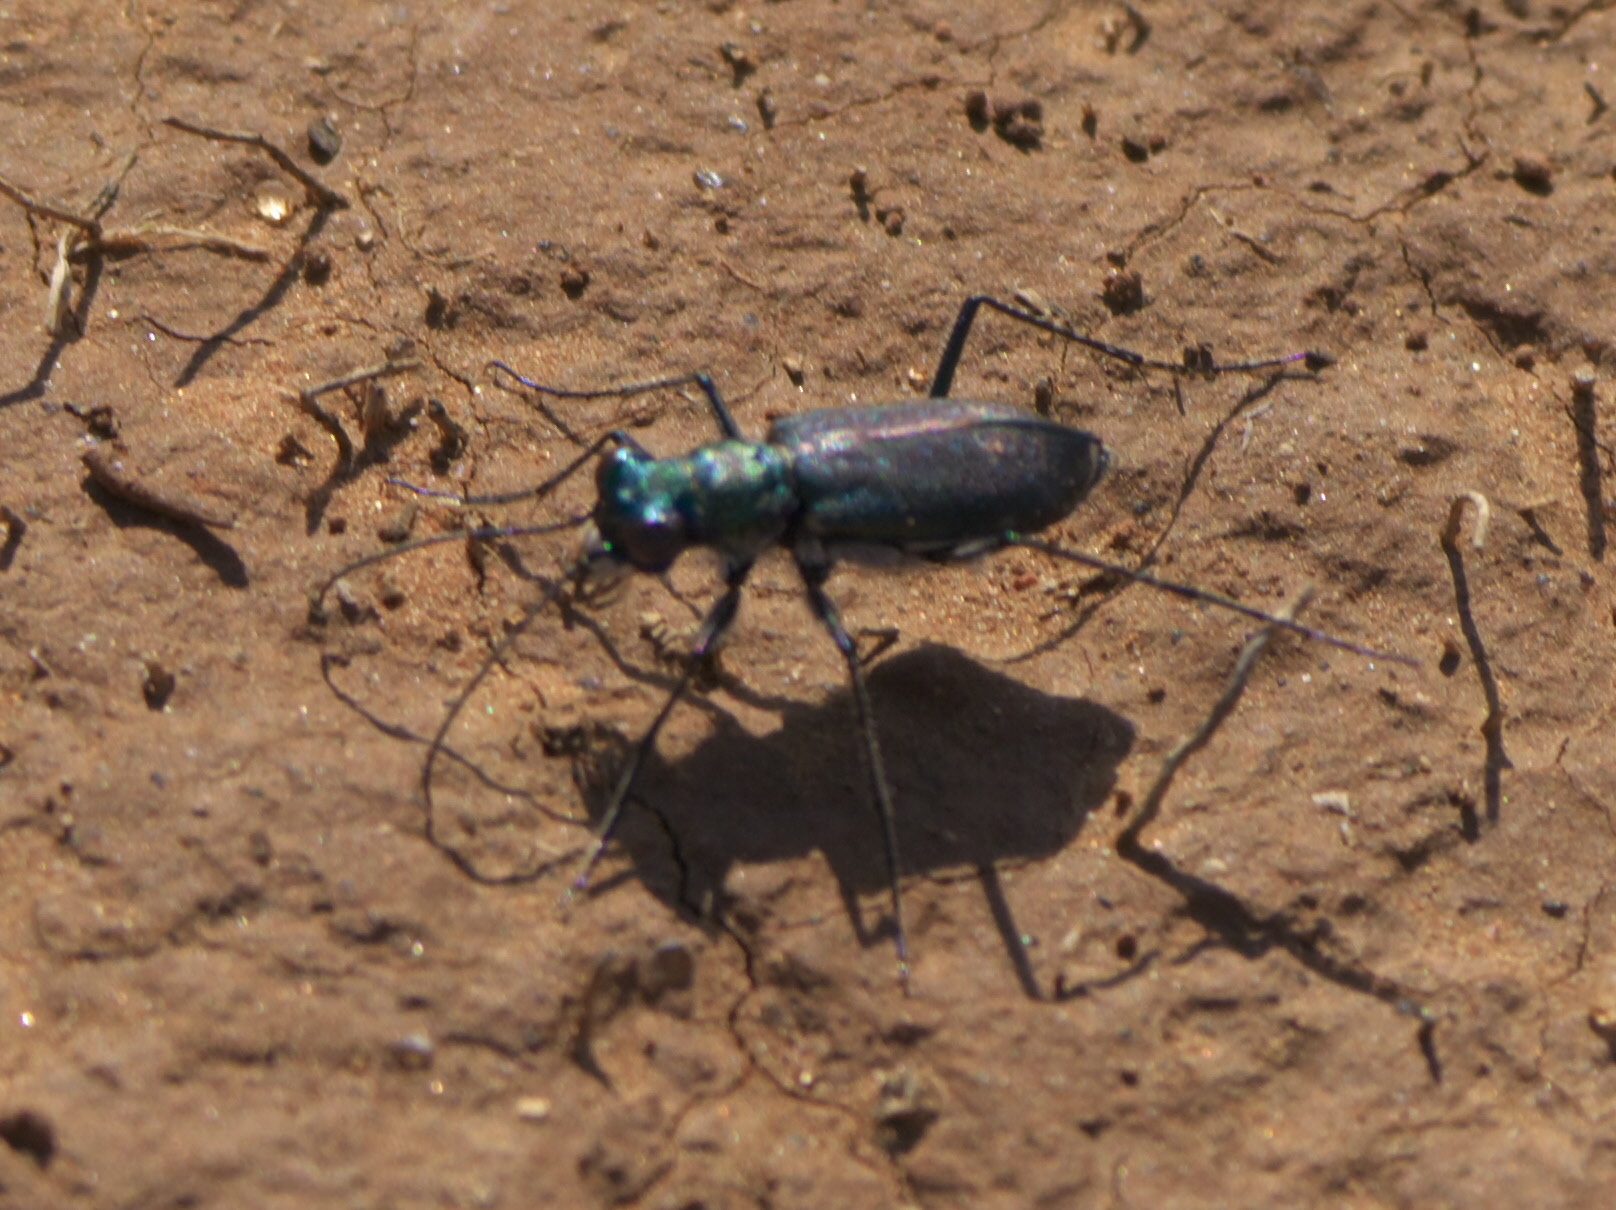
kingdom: Animalia
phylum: Arthropoda
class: Insecta
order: Coleoptera
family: Carabidae
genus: Cicindela
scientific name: Cicindela punctulata
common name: Punctured tiger beetle
